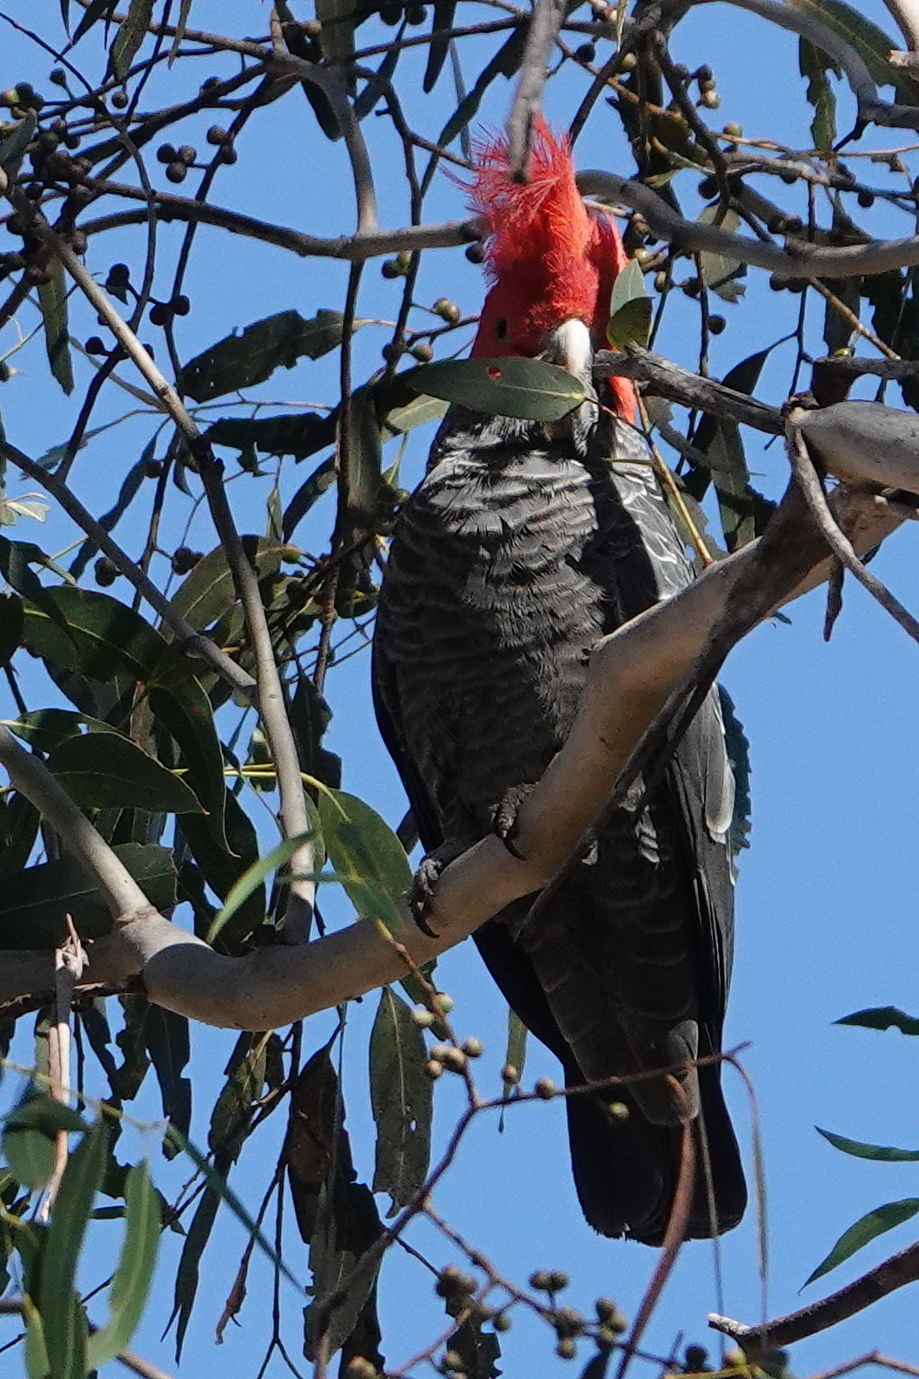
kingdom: Animalia
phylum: Chordata
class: Aves
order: Psittaciformes
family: Psittacidae
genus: Callocephalon
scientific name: Callocephalon fimbriatum
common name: Gang-gang cockatoo
